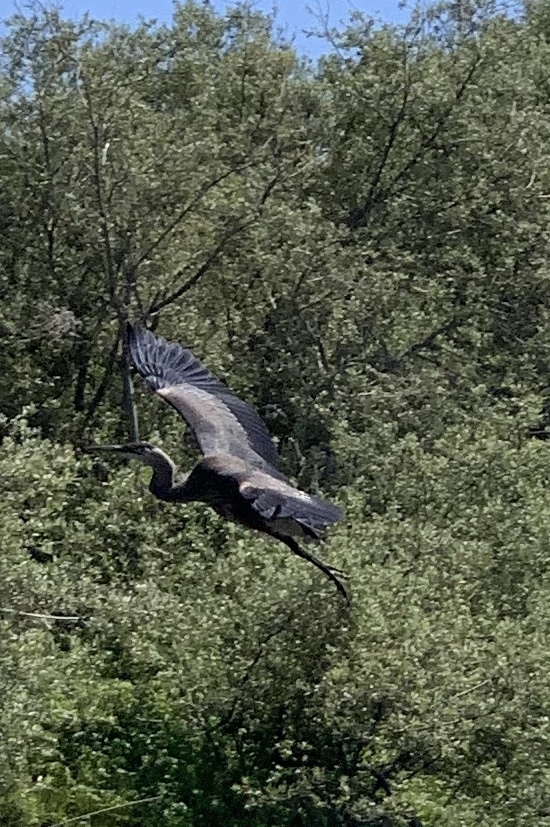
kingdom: Animalia
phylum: Chordata
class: Aves
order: Pelecaniformes
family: Ardeidae
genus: Ardea
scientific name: Ardea herodias
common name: Great blue heron
